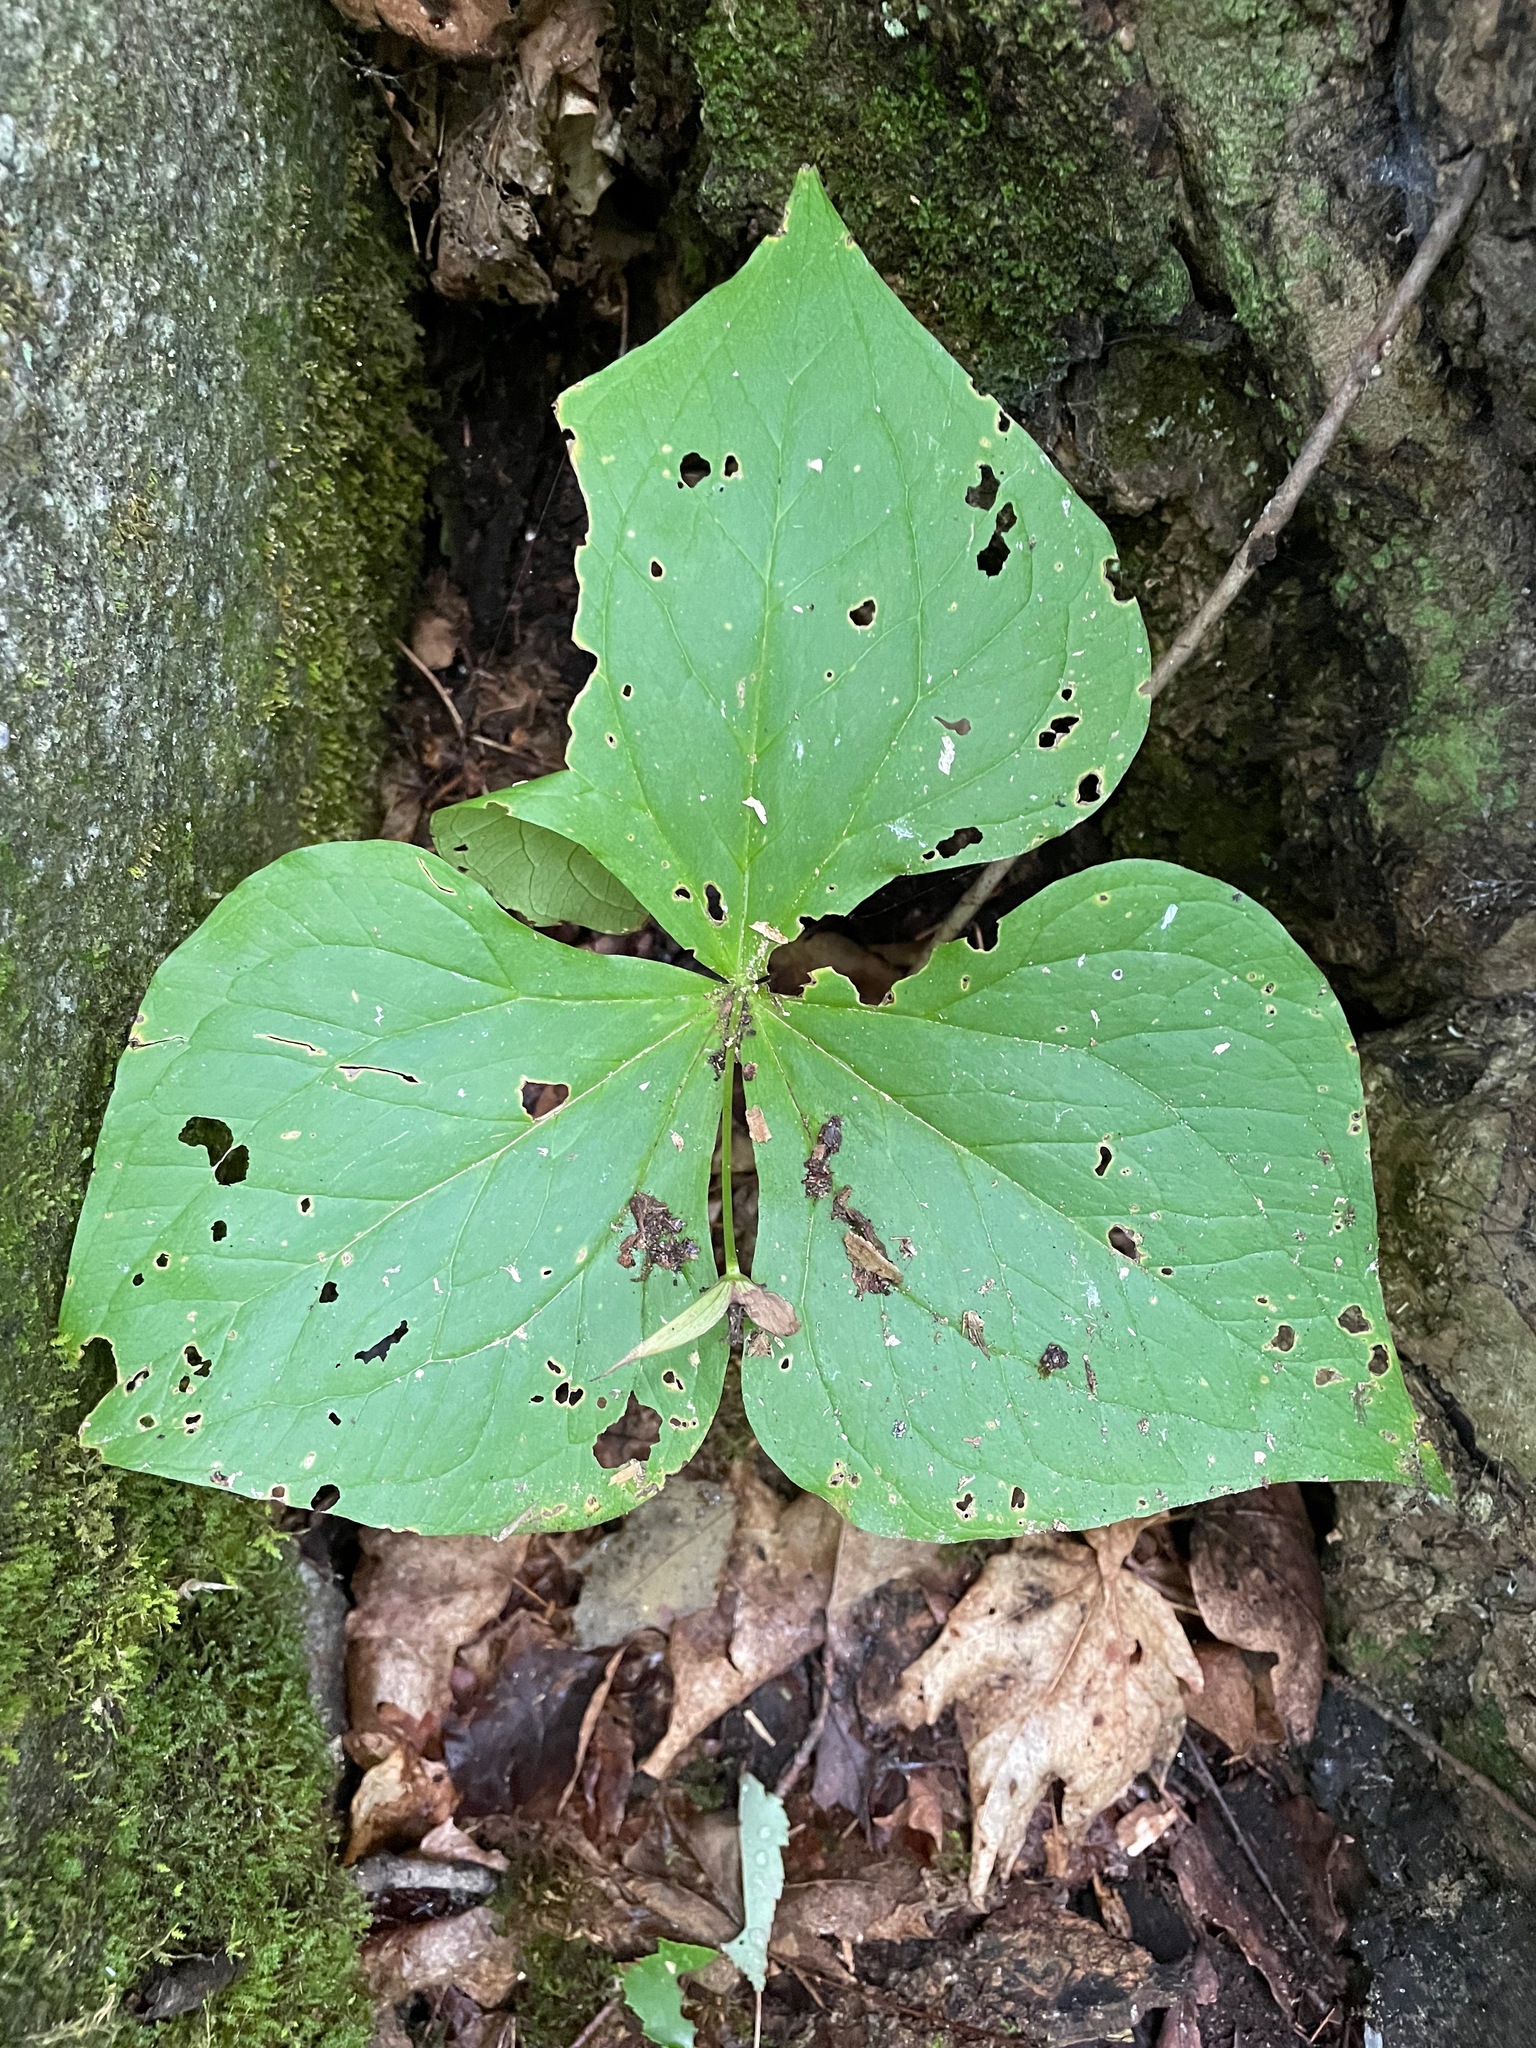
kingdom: Plantae
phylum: Tracheophyta
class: Liliopsida
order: Liliales
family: Melanthiaceae
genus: Trillium
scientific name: Trillium erectum
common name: Purple trillium
